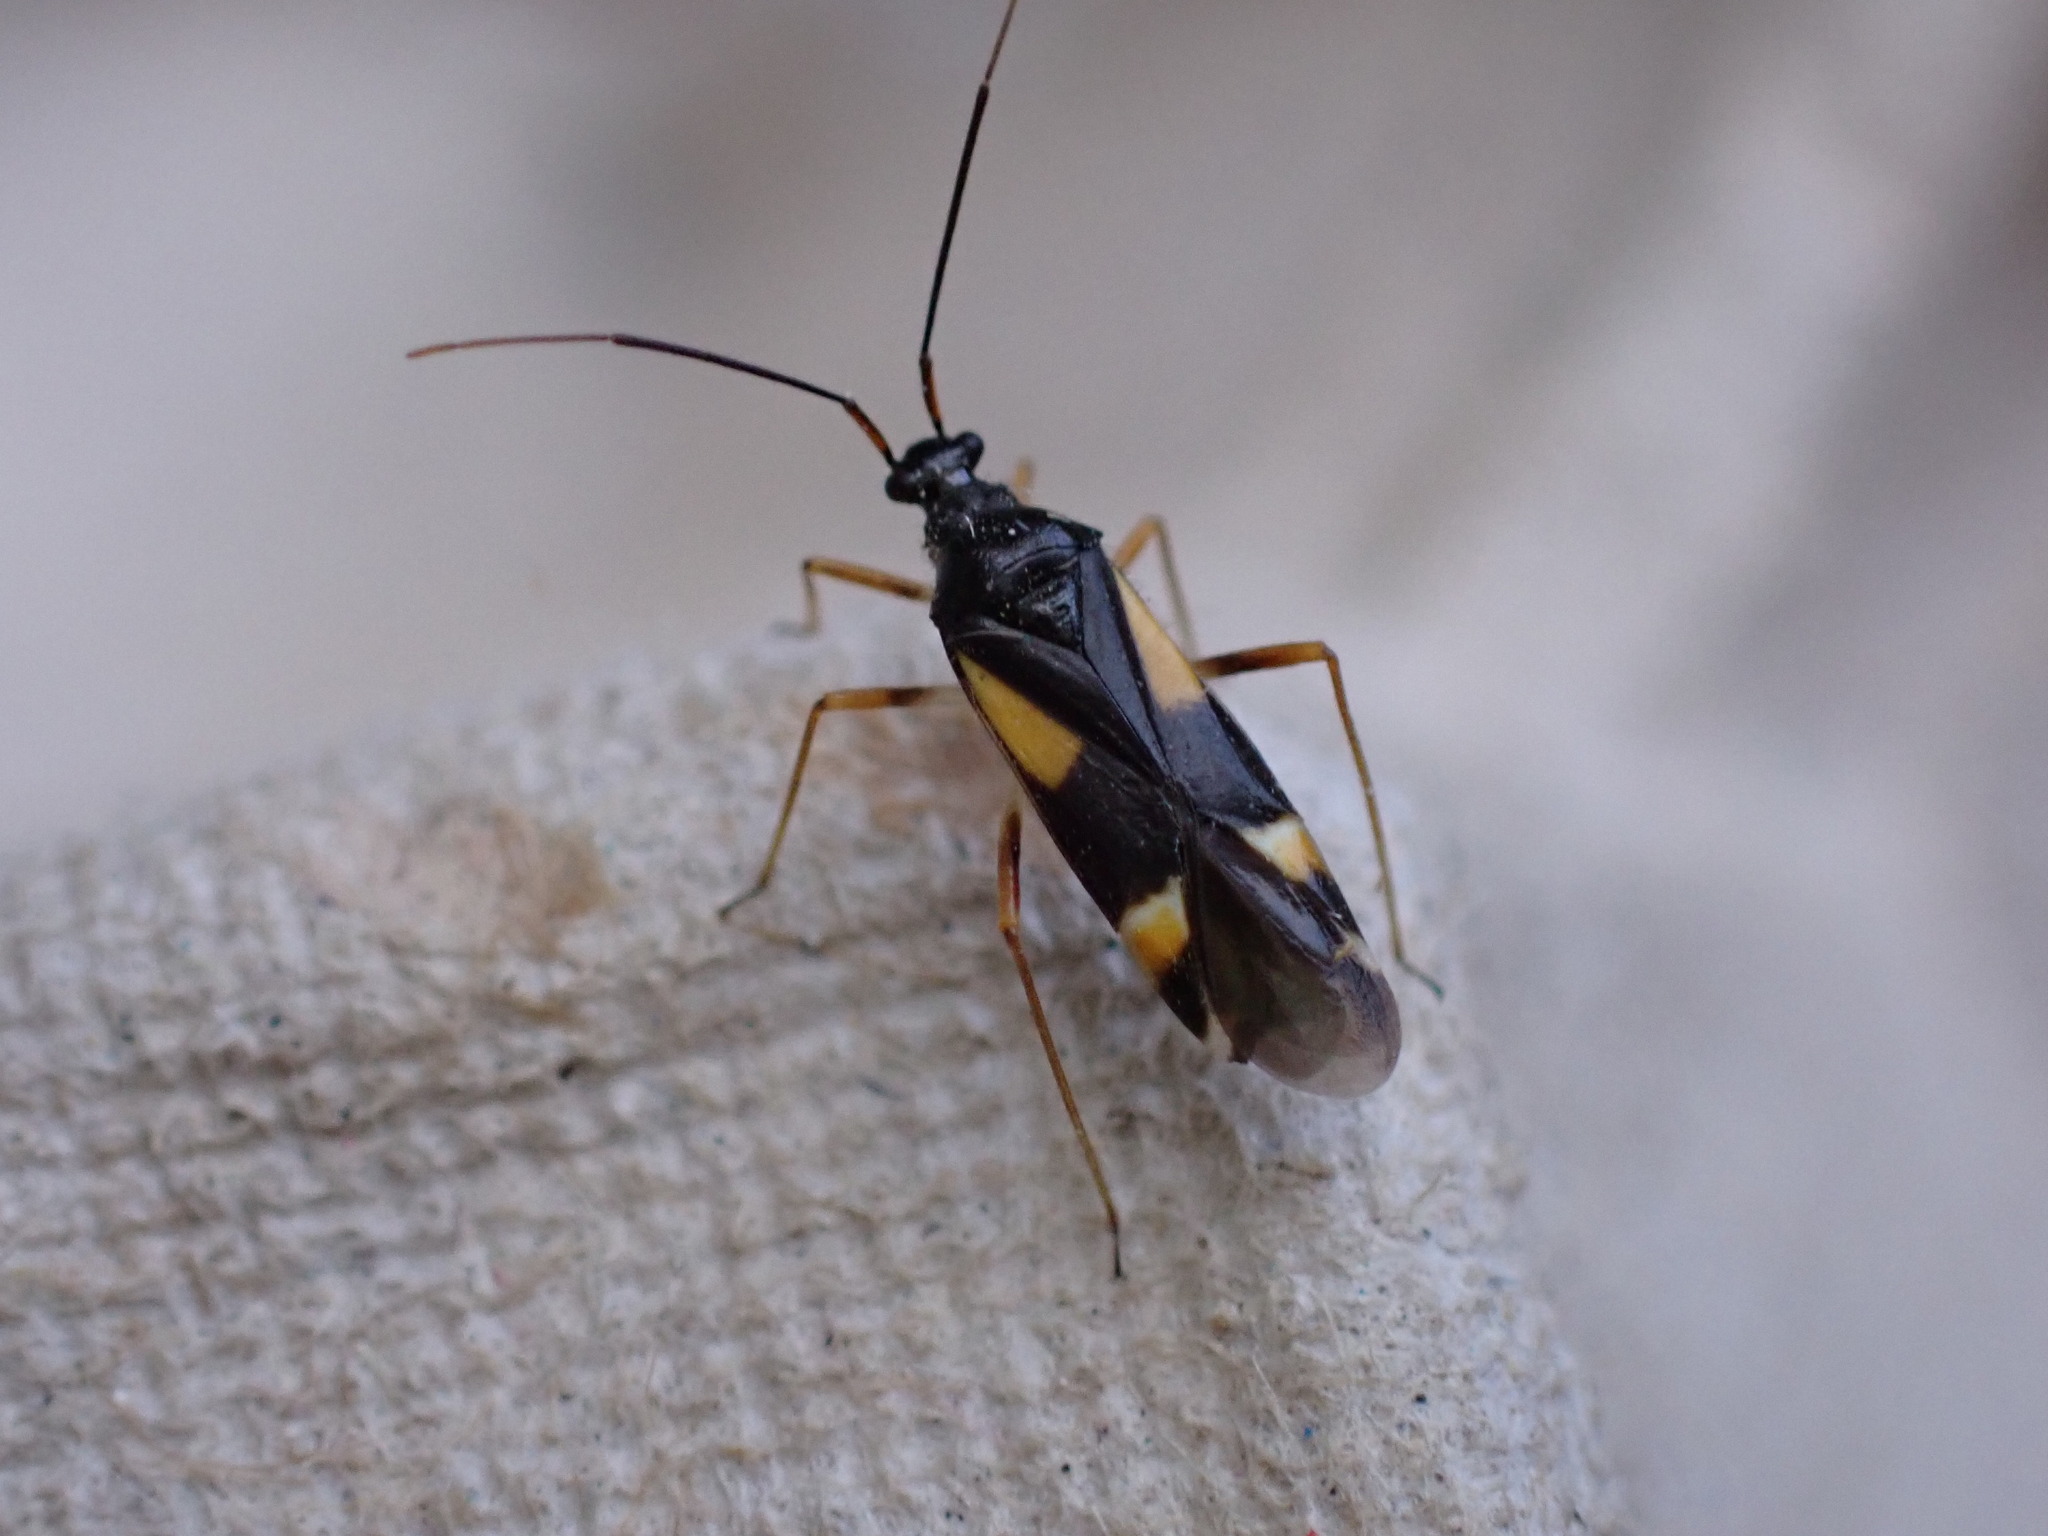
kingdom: Animalia
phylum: Arthropoda
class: Insecta
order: Hemiptera
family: Miridae
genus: Dryophilocoris
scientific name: Dryophilocoris flavoquadrimaculatus
